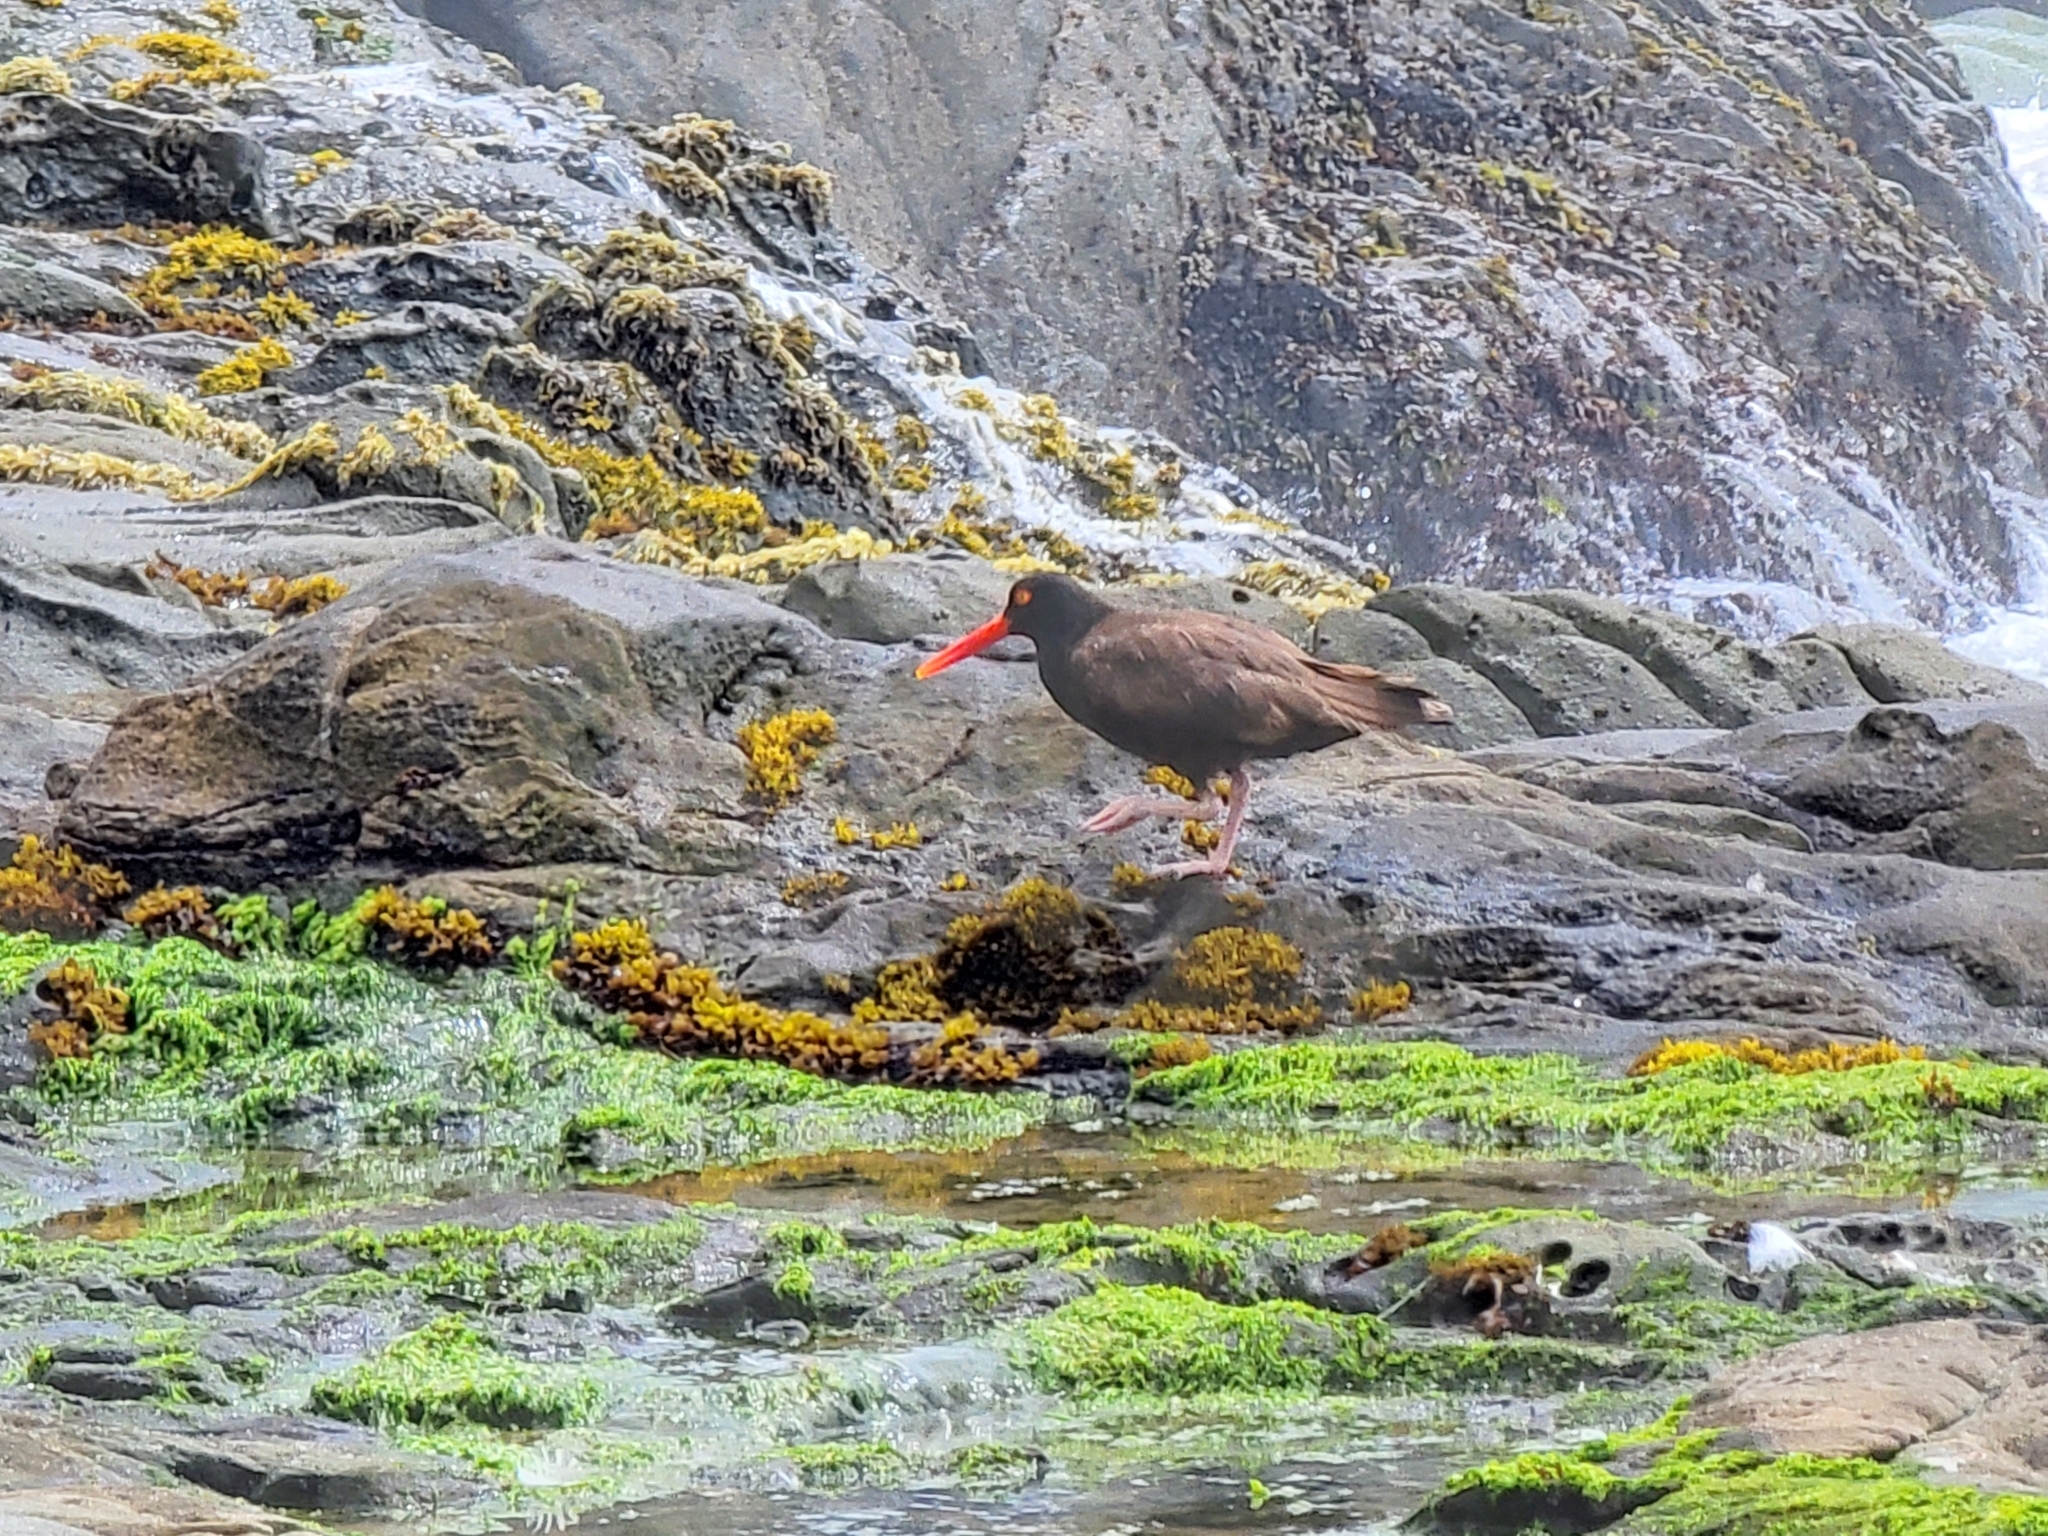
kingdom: Animalia
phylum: Chordata
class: Aves
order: Charadriiformes
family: Haematopodidae
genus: Haematopus
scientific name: Haematopus bachmani
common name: Black oystercatcher
